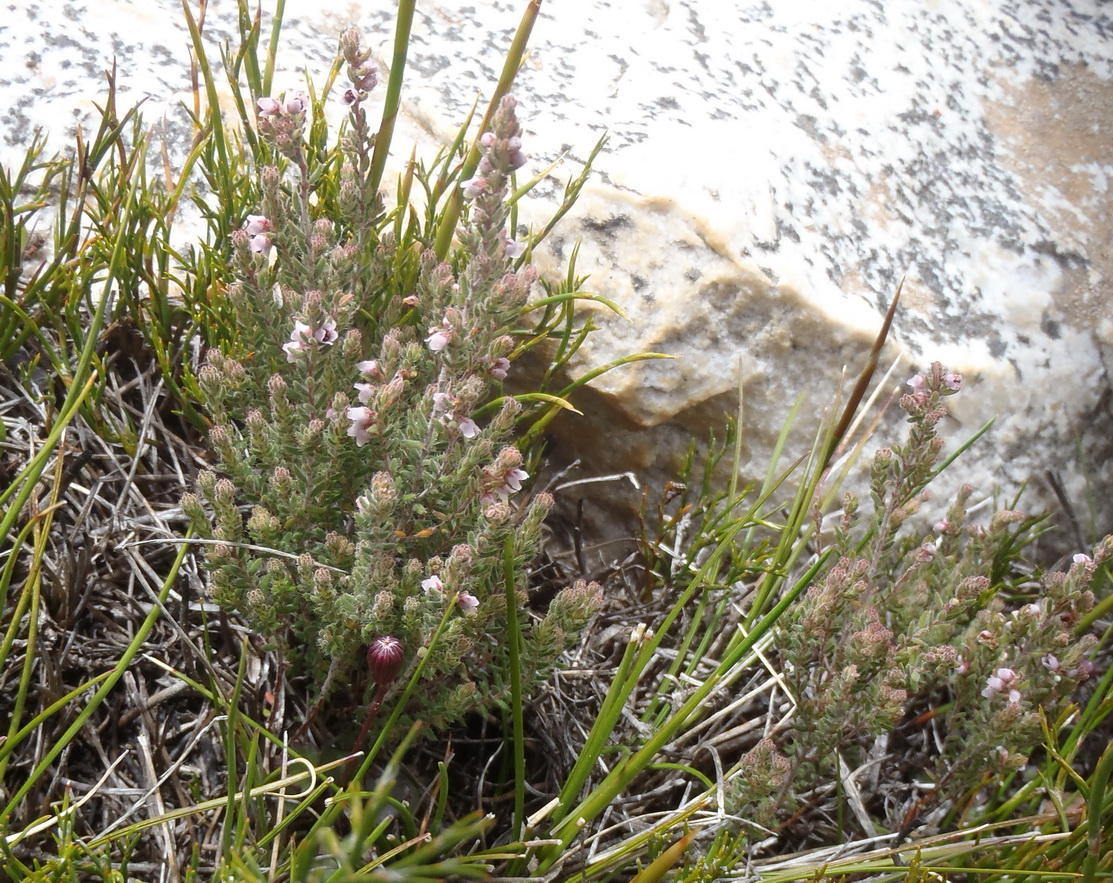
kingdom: Plantae
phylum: Tracheophyta
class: Magnoliopsida
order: Ericales
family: Ericaceae
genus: Erica
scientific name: Erica glandulipila
